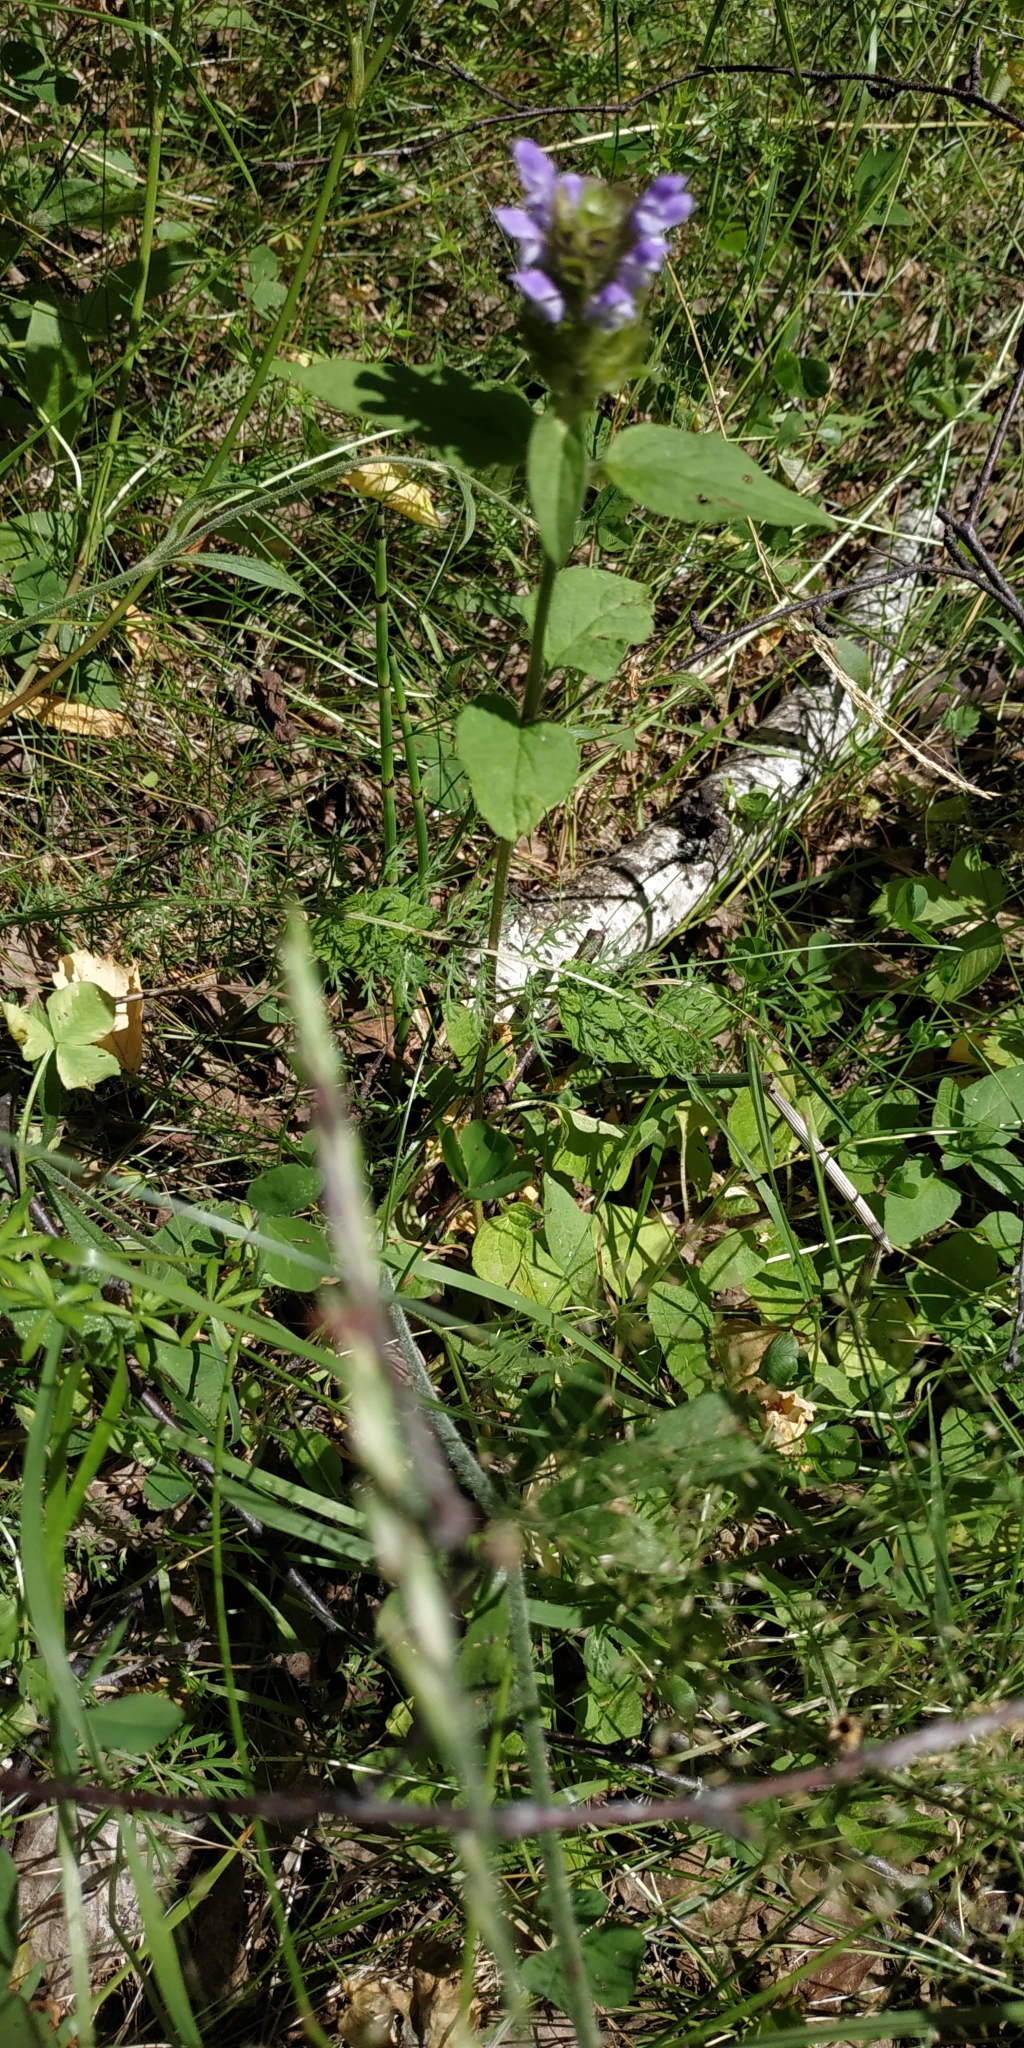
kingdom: Plantae
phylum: Tracheophyta
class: Magnoliopsida
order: Lamiales
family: Lamiaceae
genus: Prunella
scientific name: Prunella vulgaris
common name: Heal-all
